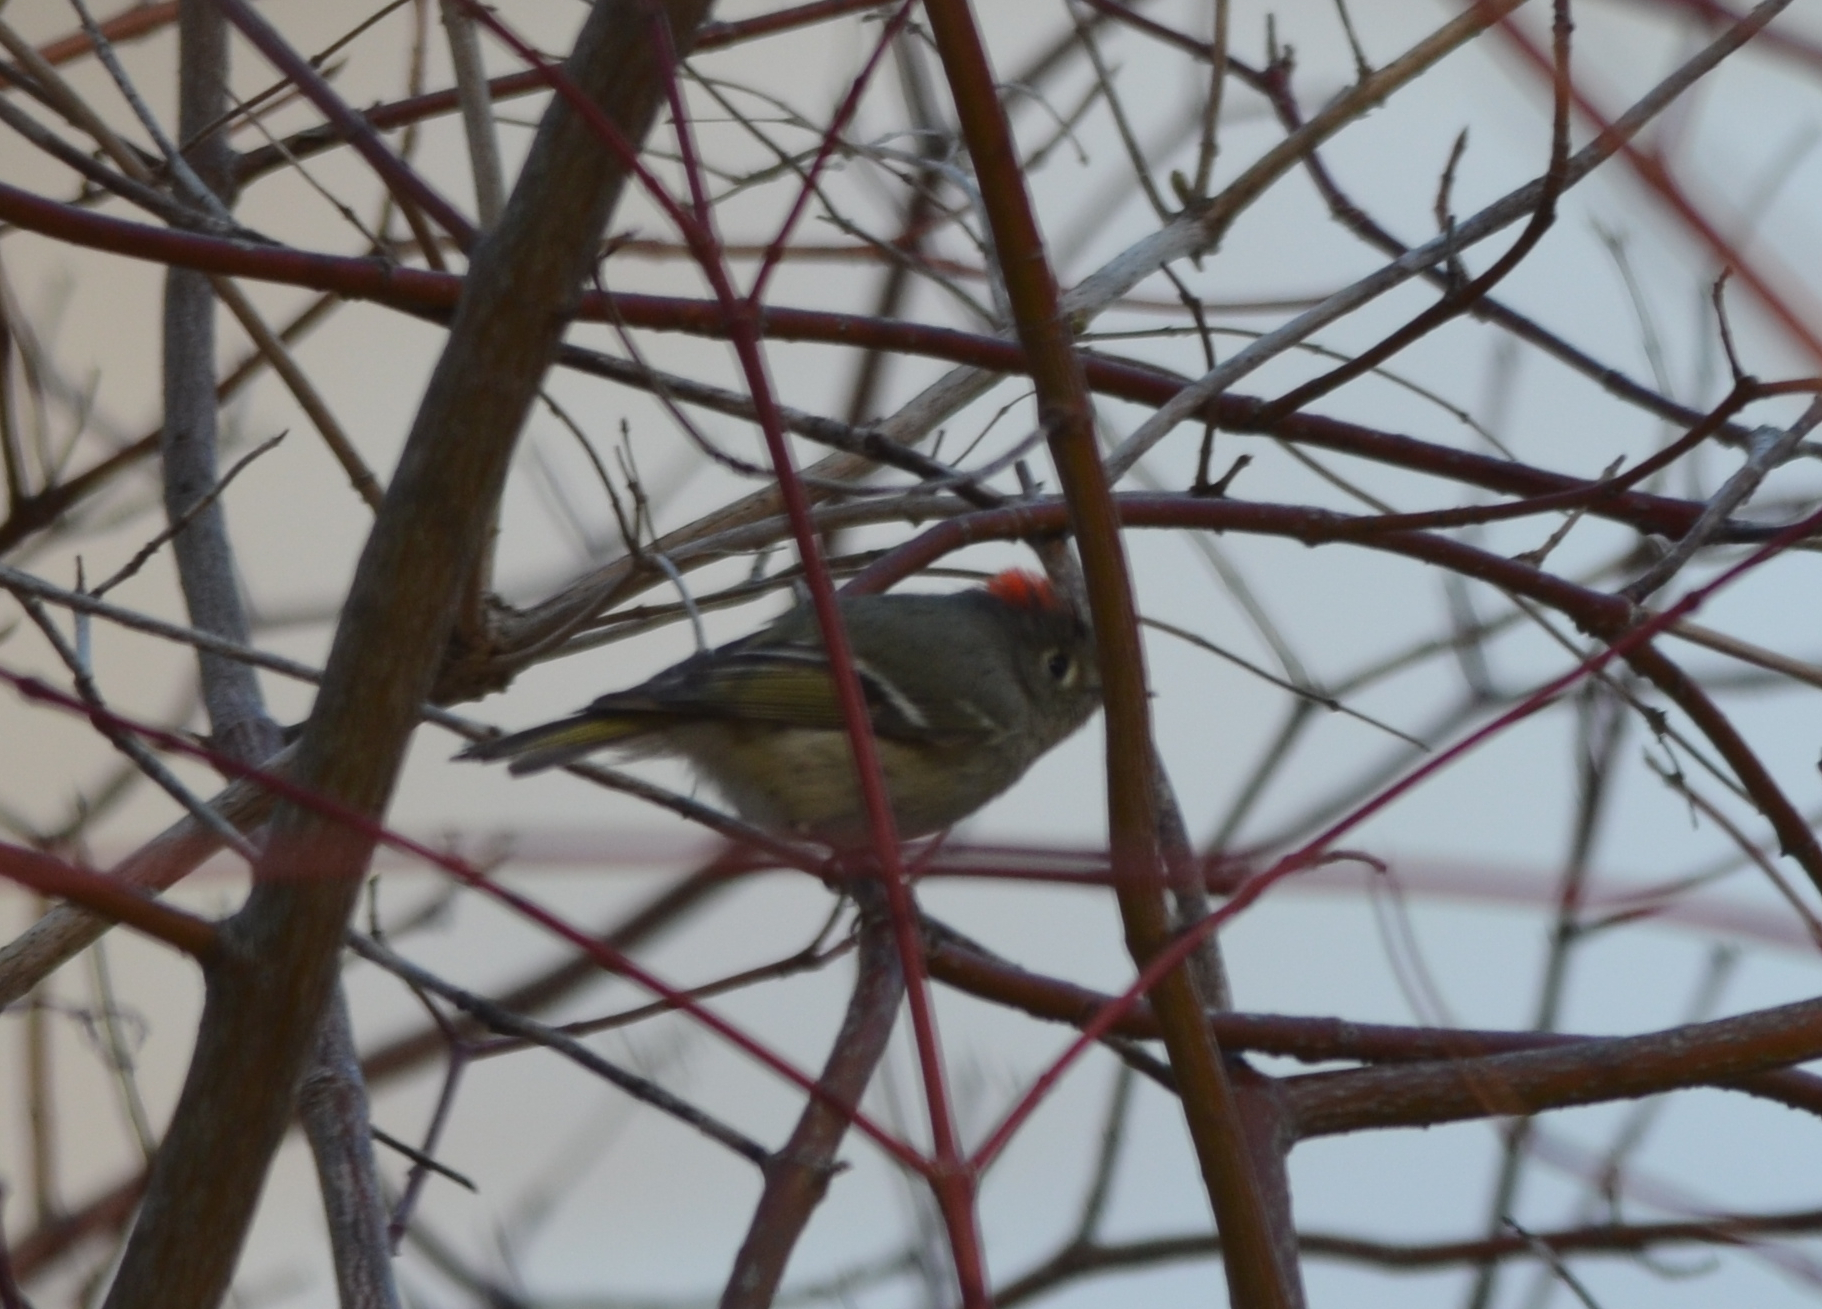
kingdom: Animalia
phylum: Chordata
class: Aves
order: Passeriformes
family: Regulidae
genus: Regulus
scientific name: Regulus calendula
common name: Ruby-crowned kinglet
